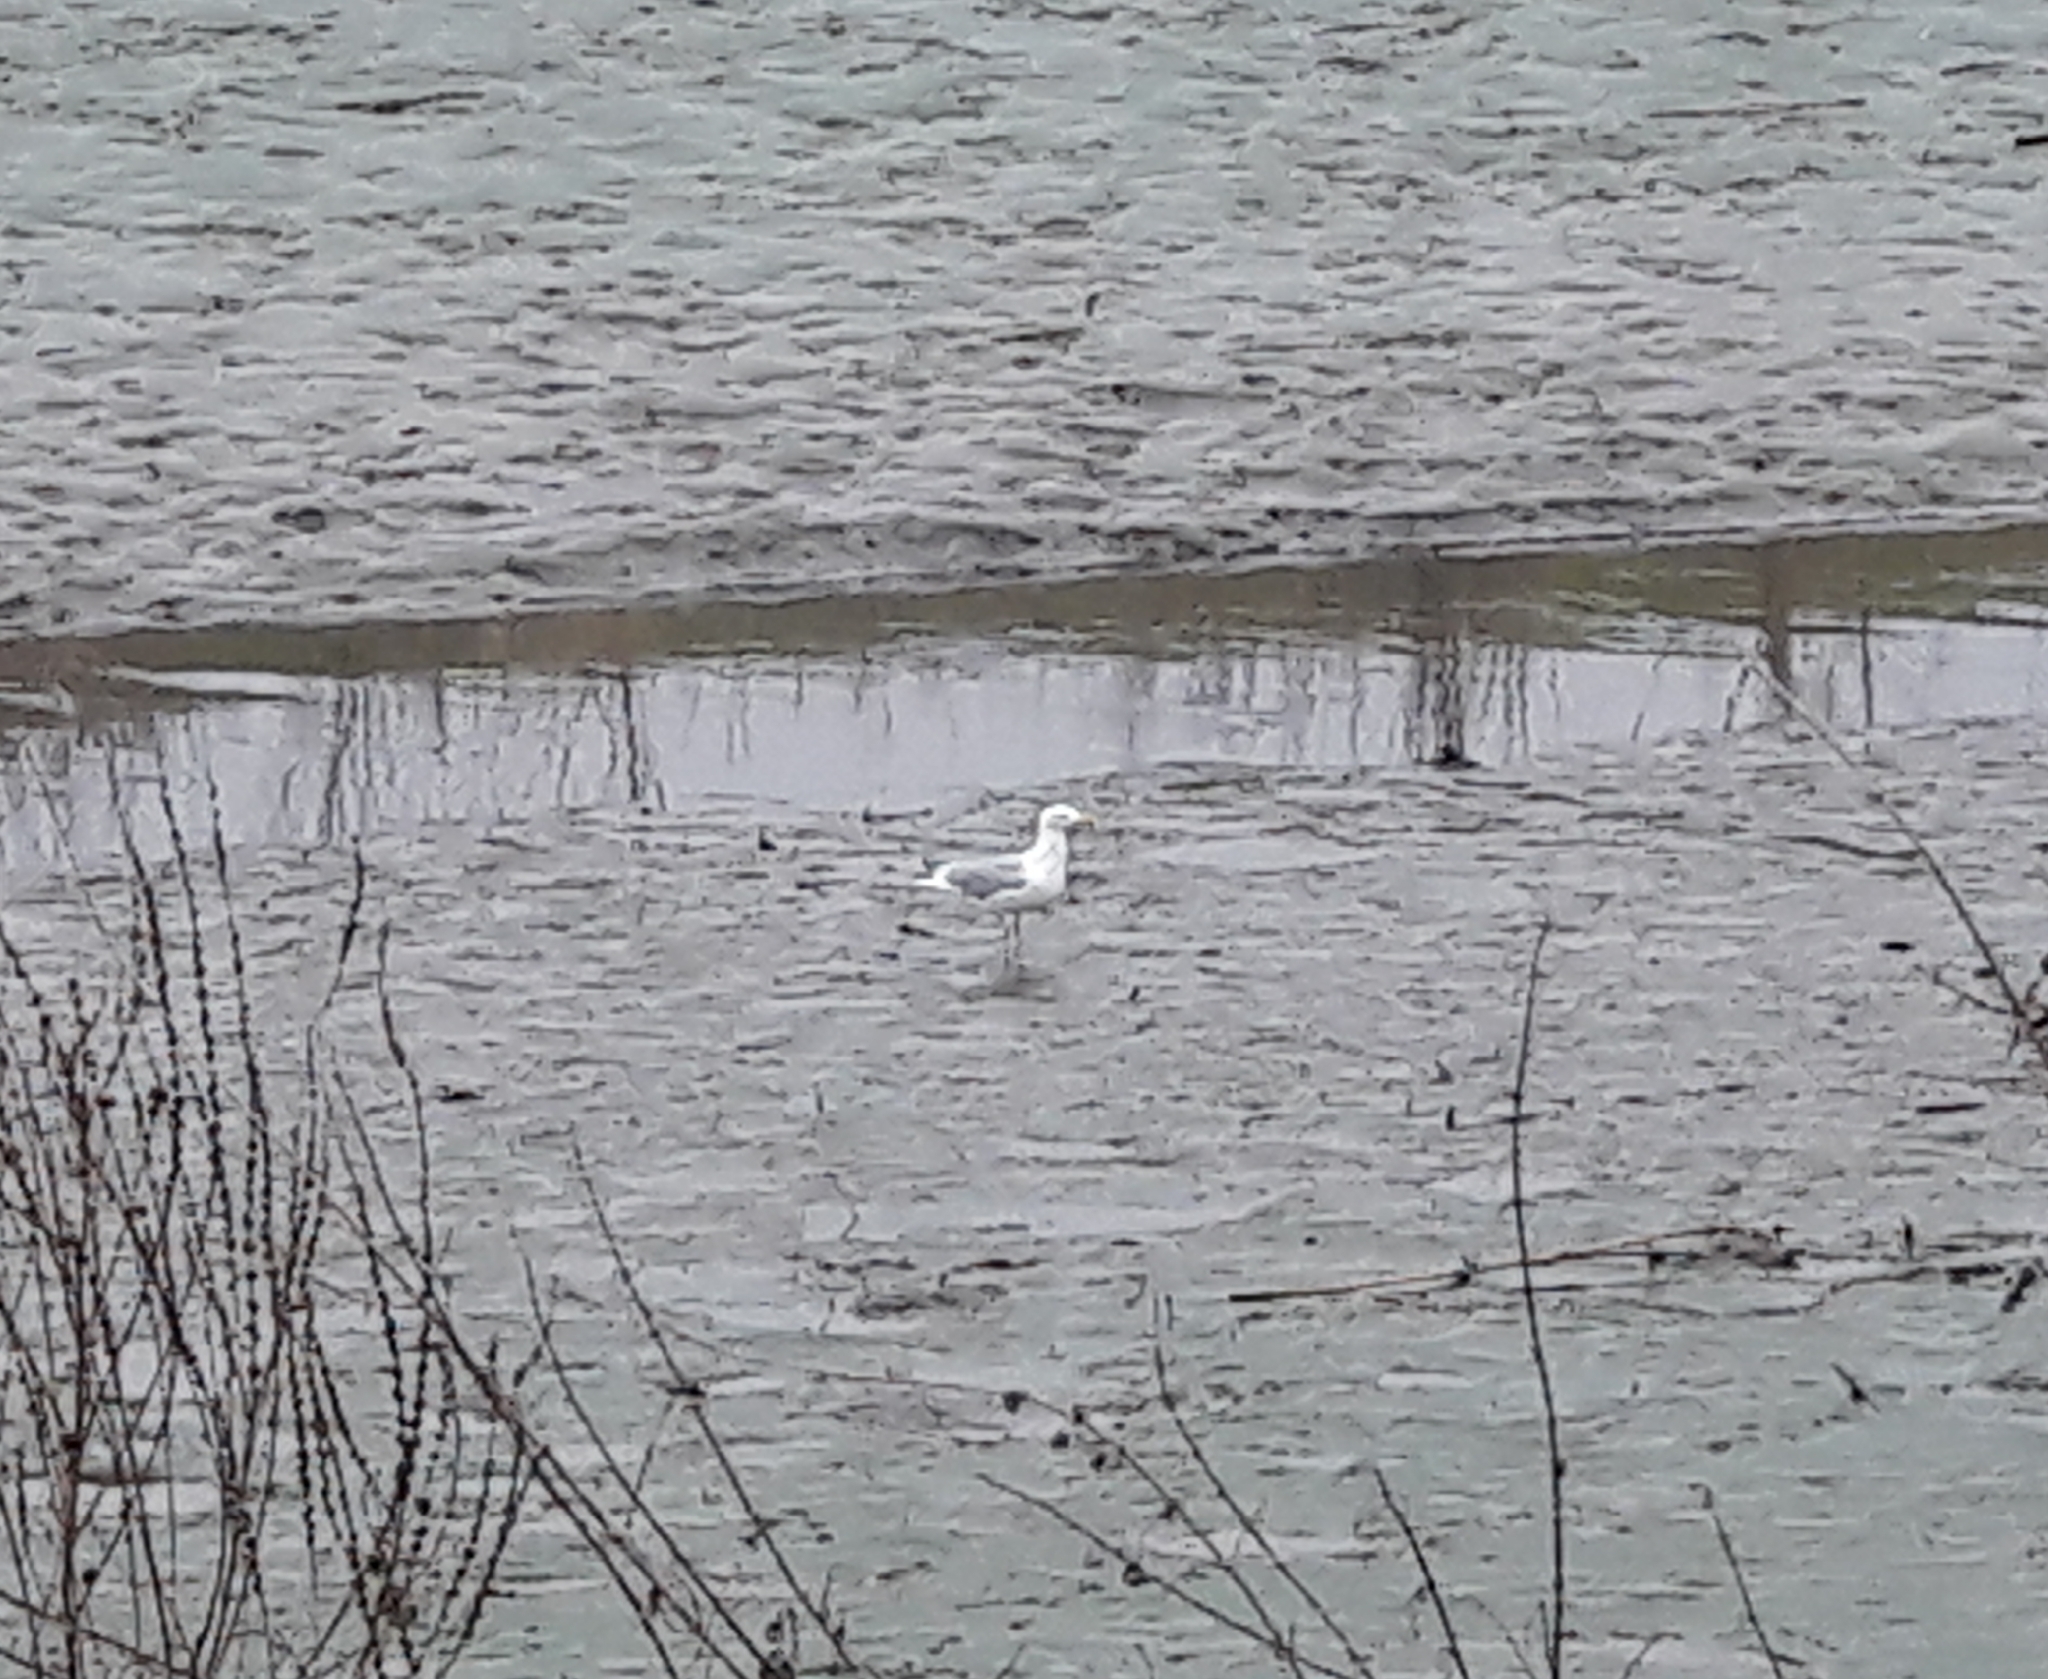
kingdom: Animalia
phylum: Chordata
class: Aves
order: Charadriiformes
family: Laridae
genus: Larus
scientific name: Larus argentatus
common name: Herring gull
